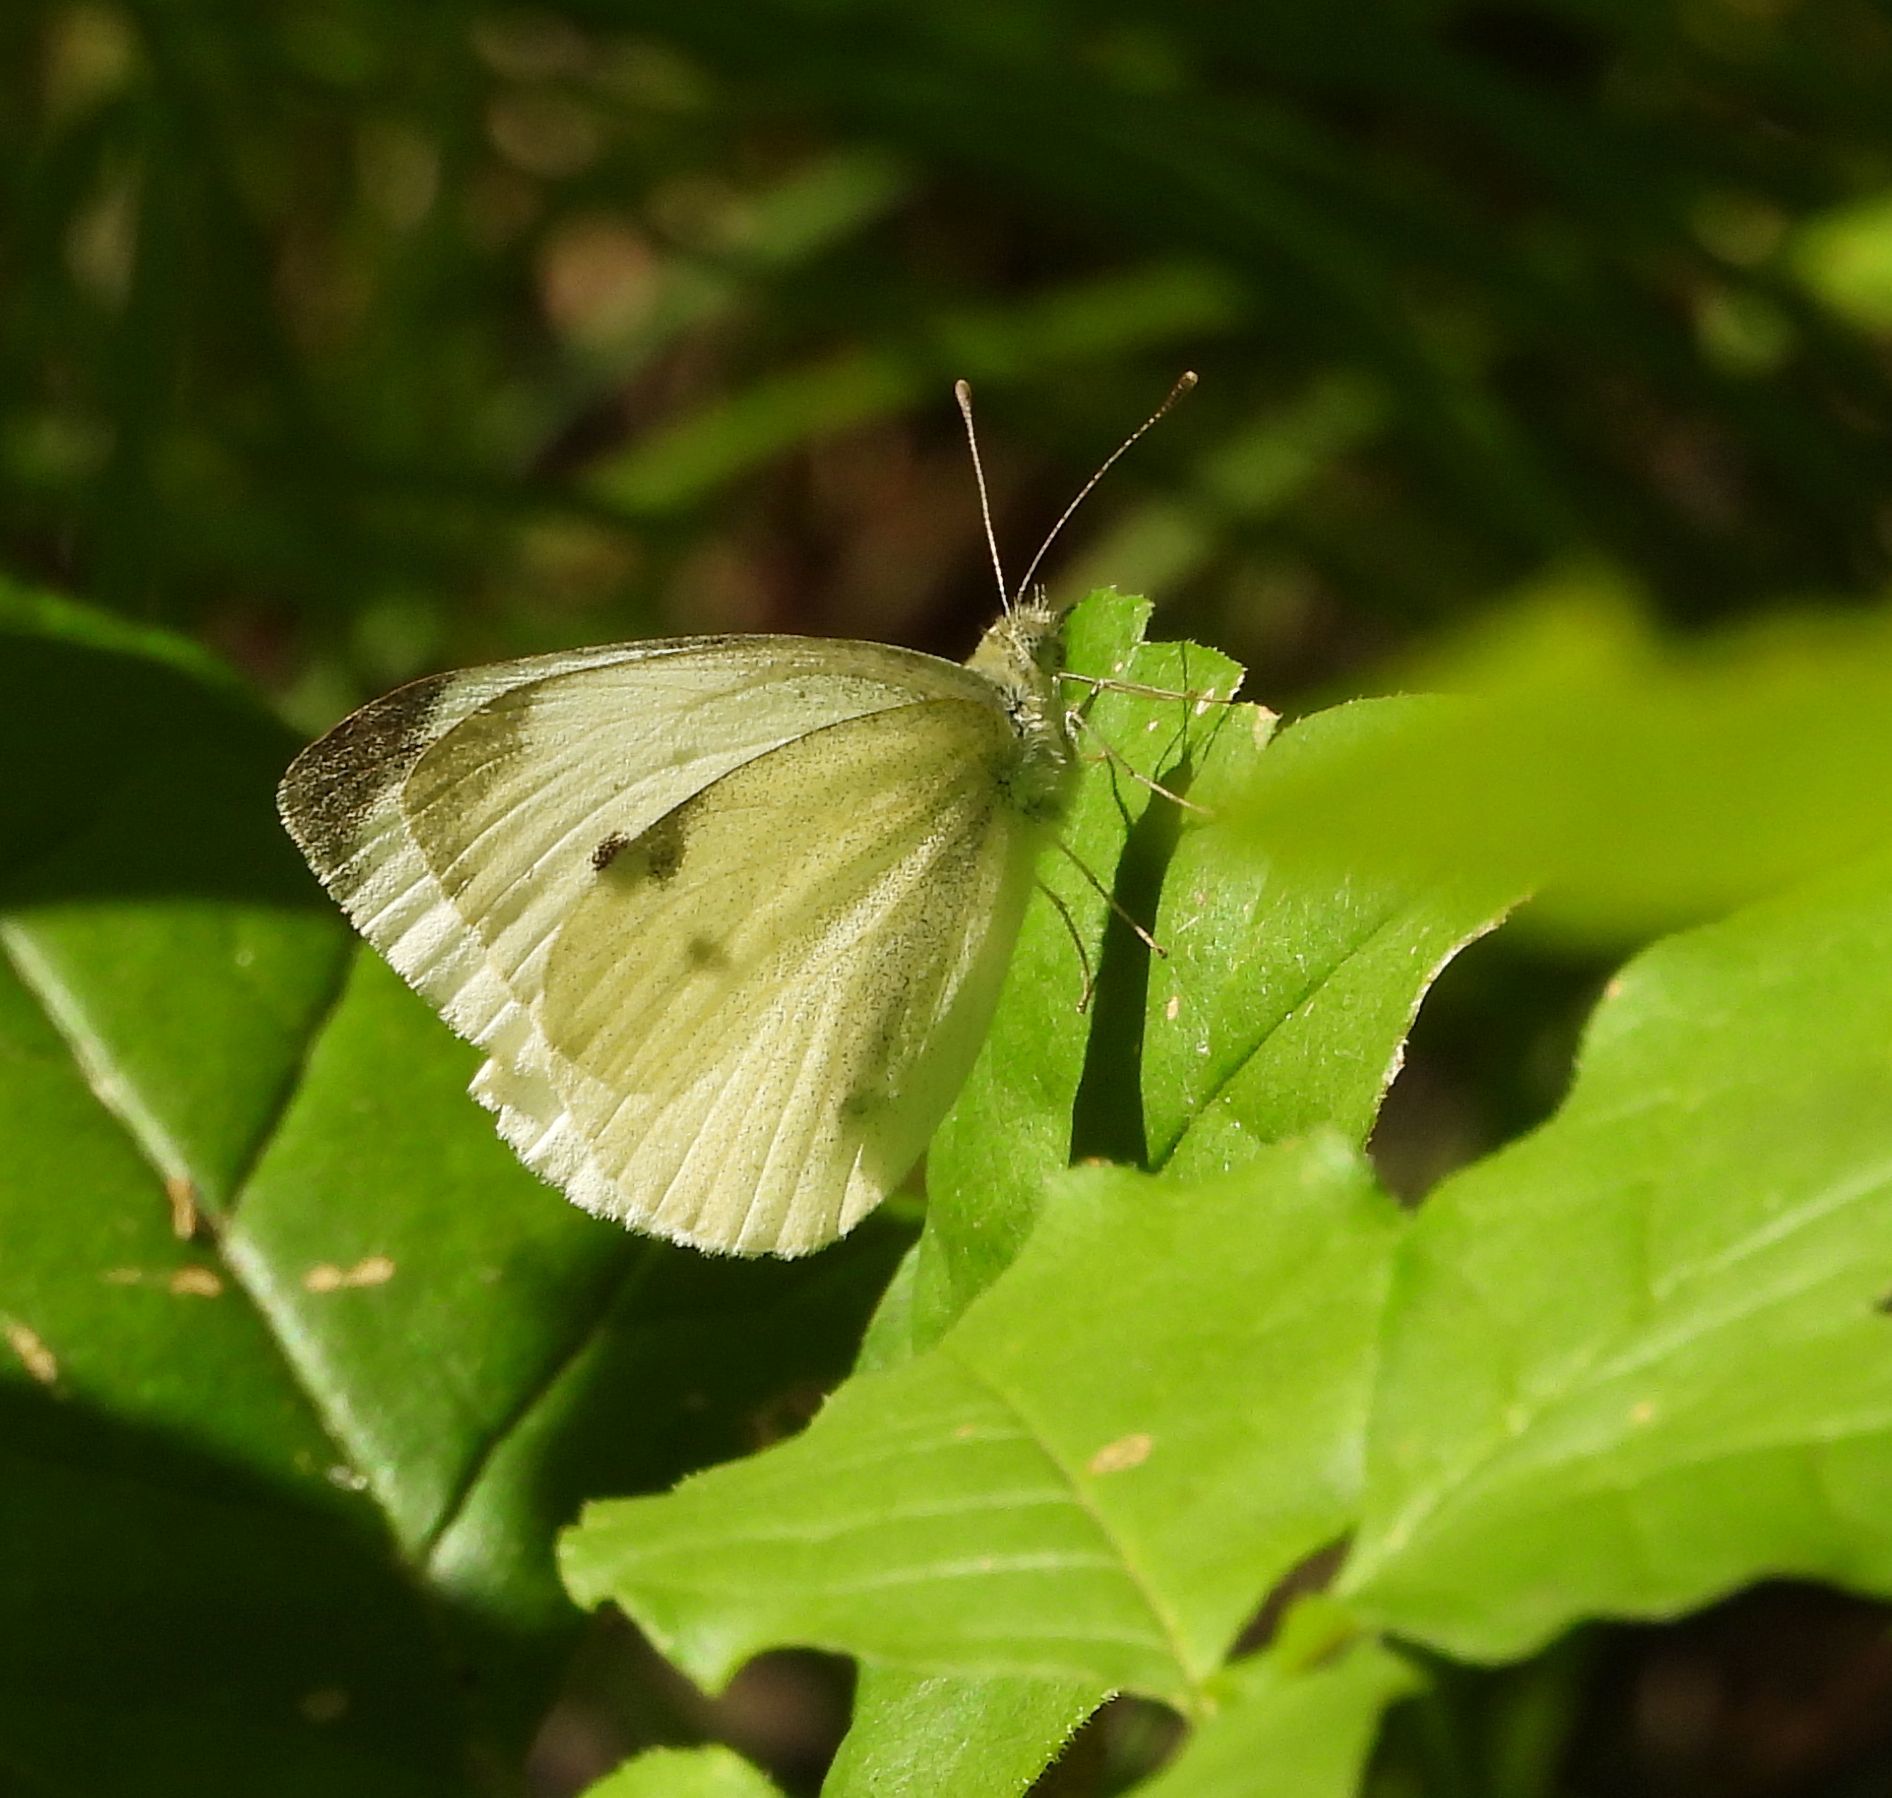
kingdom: Animalia
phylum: Arthropoda
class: Insecta
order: Lepidoptera
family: Pieridae
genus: Pieris
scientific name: Pieris rapae
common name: Small white
